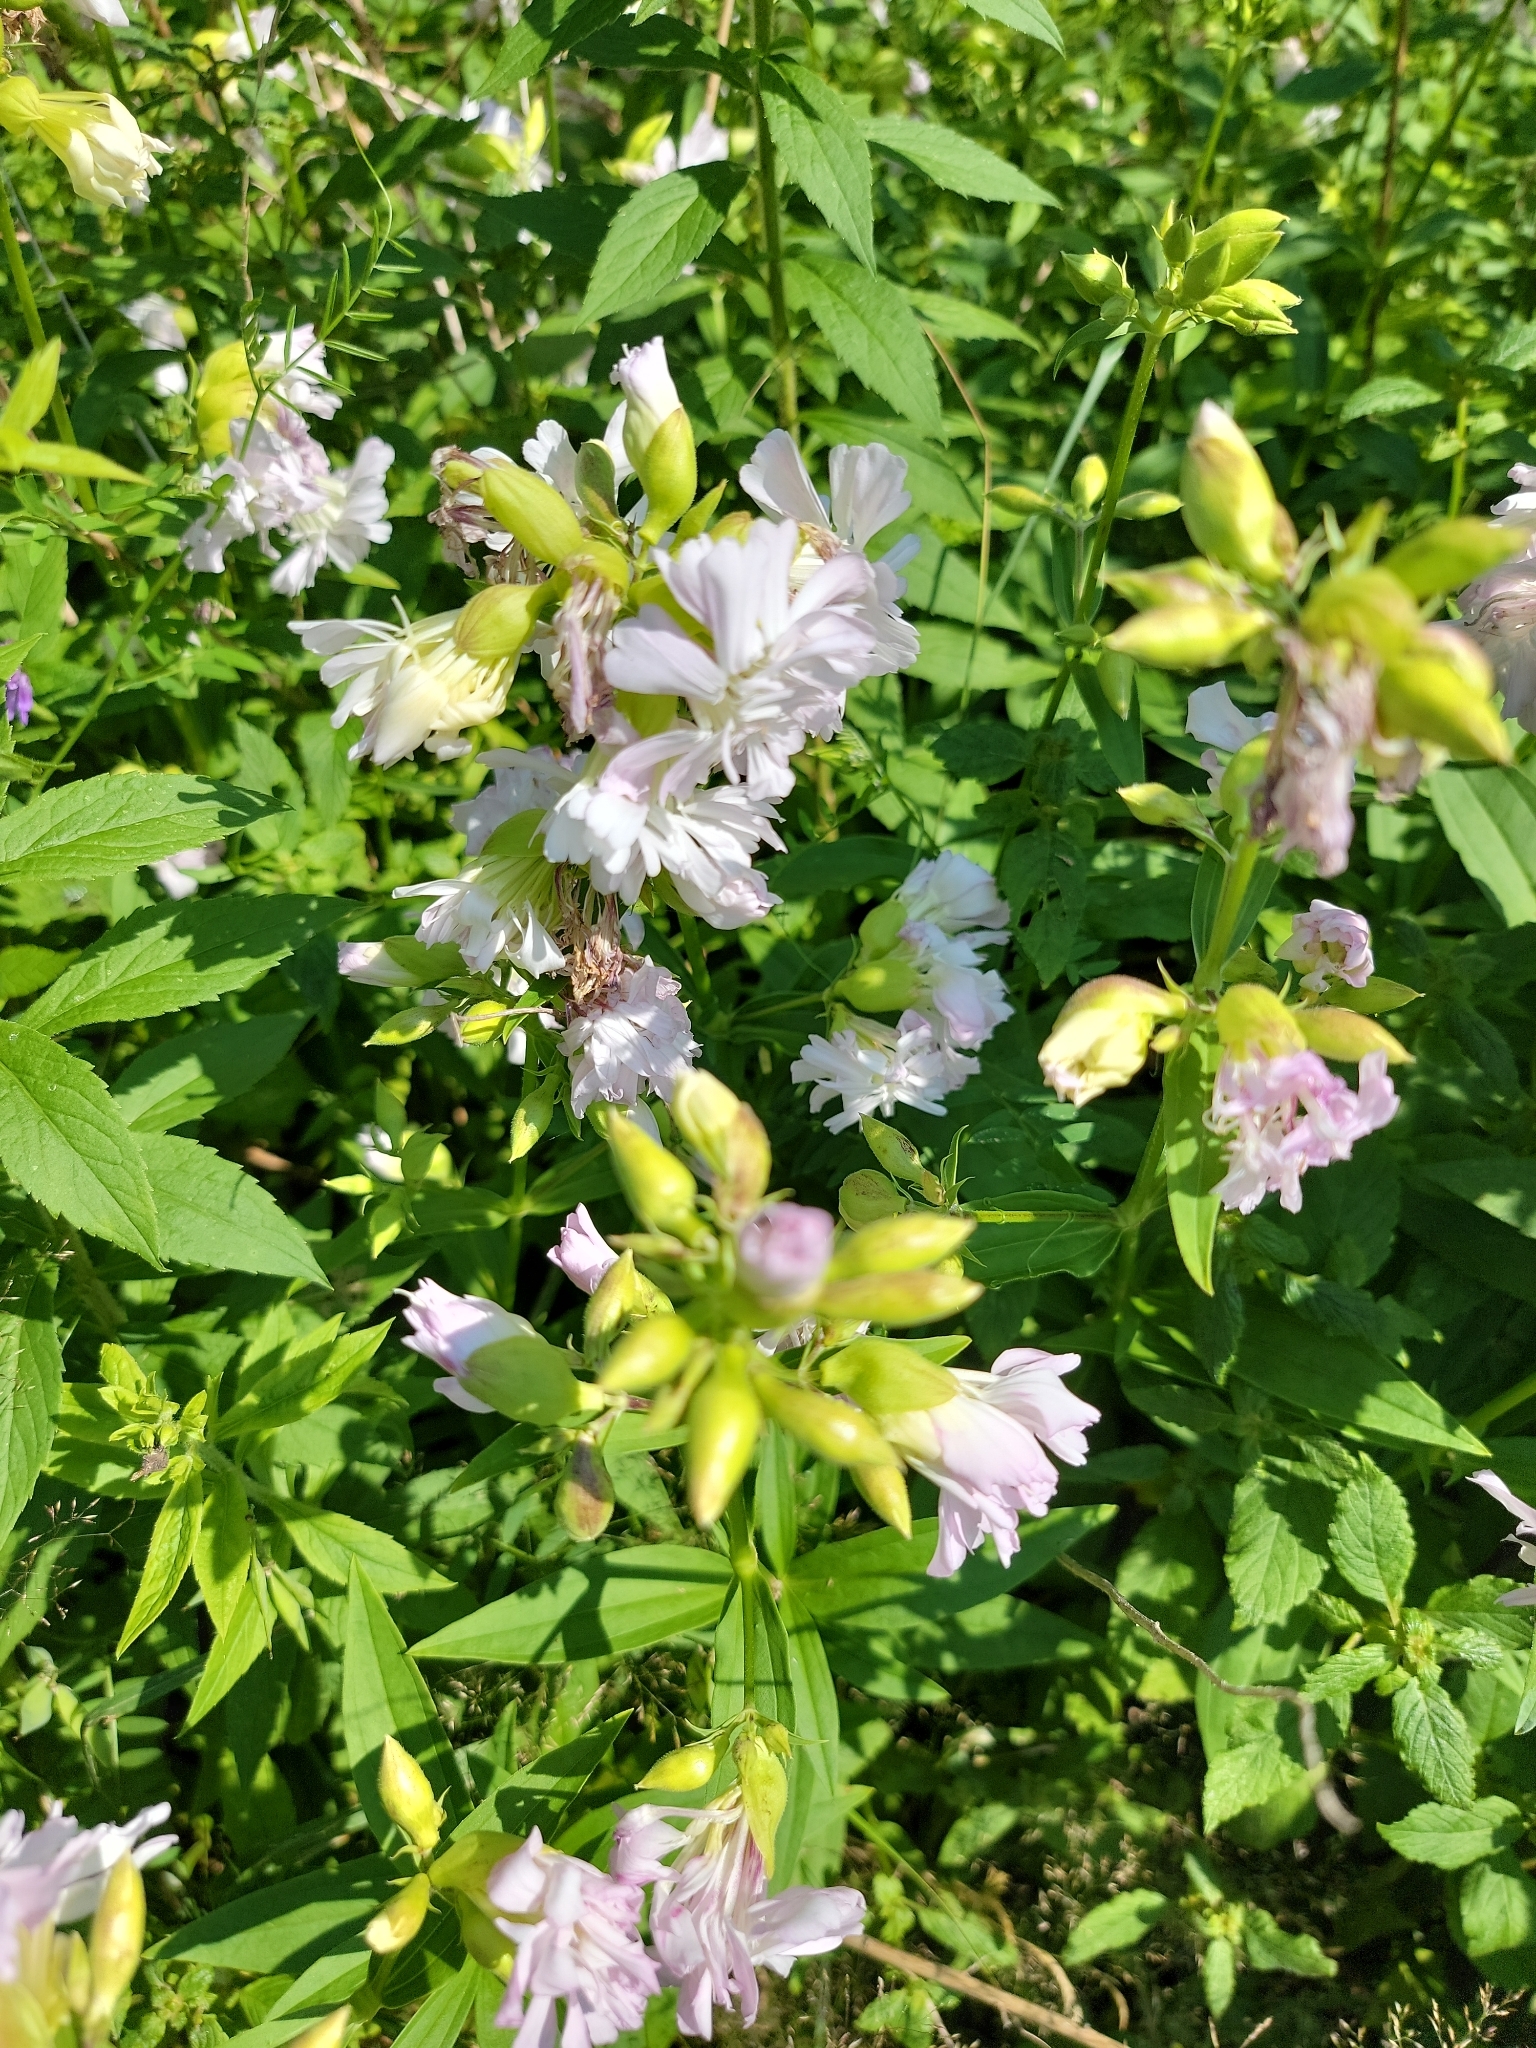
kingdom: Plantae
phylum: Tracheophyta
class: Magnoliopsida
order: Caryophyllales
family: Caryophyllaceae
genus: Saponaria
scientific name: Saponaria officinalis
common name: Soapwort
